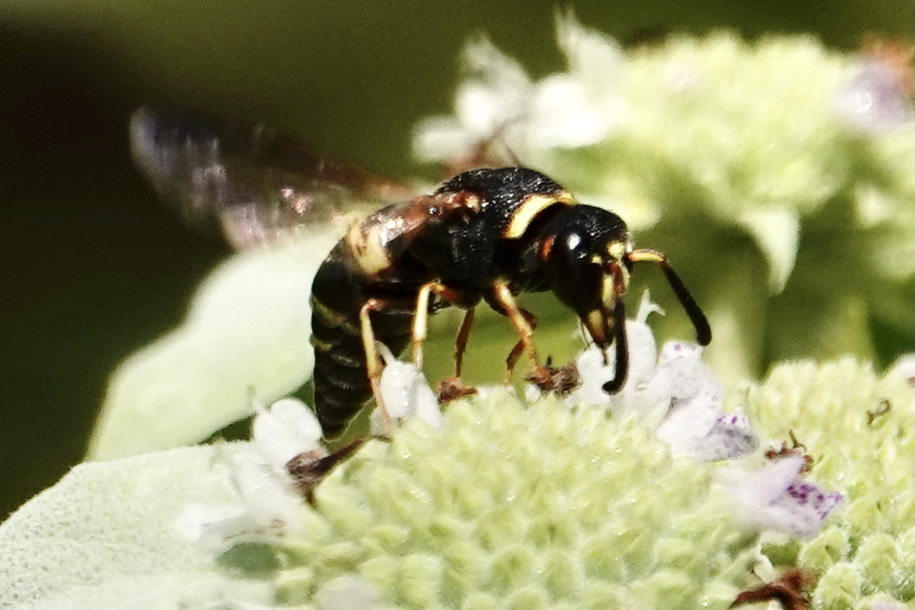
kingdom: Animalia
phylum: Arthropoda
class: Insecta
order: Hymenoptera
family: Eumenidae
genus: Euodynerus
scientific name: Euodynerus hidalgo
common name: Wasp
